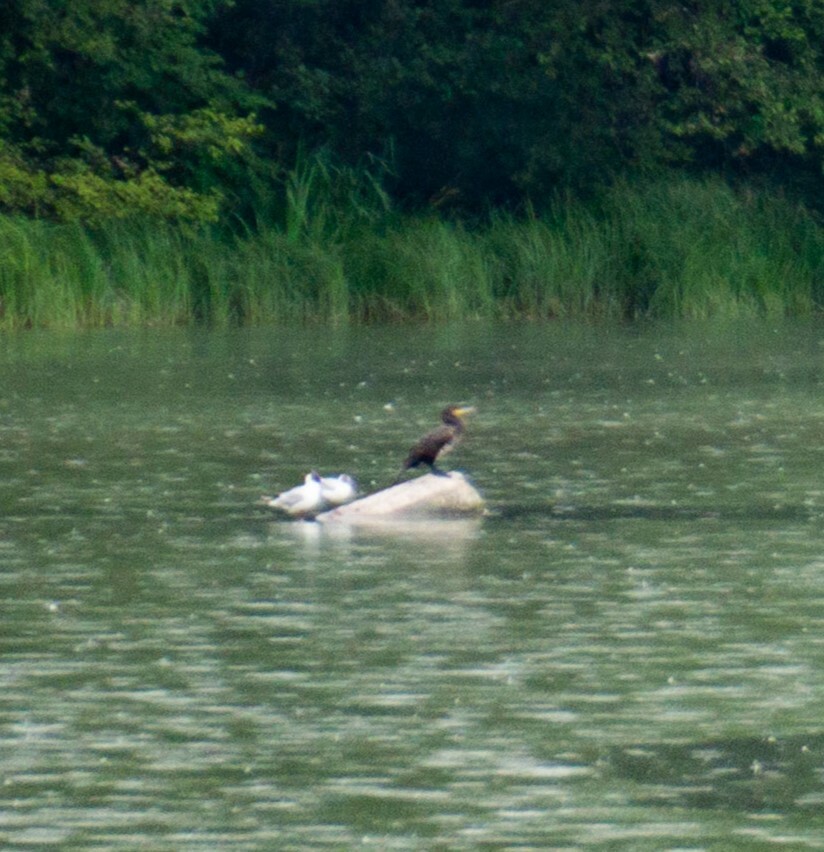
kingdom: Animalia
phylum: Chordata
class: Aves
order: Suliformes
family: Phalacrocoracidae
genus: Phalacrocorax
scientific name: Phalacrocorax carbo
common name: Great cormorant
